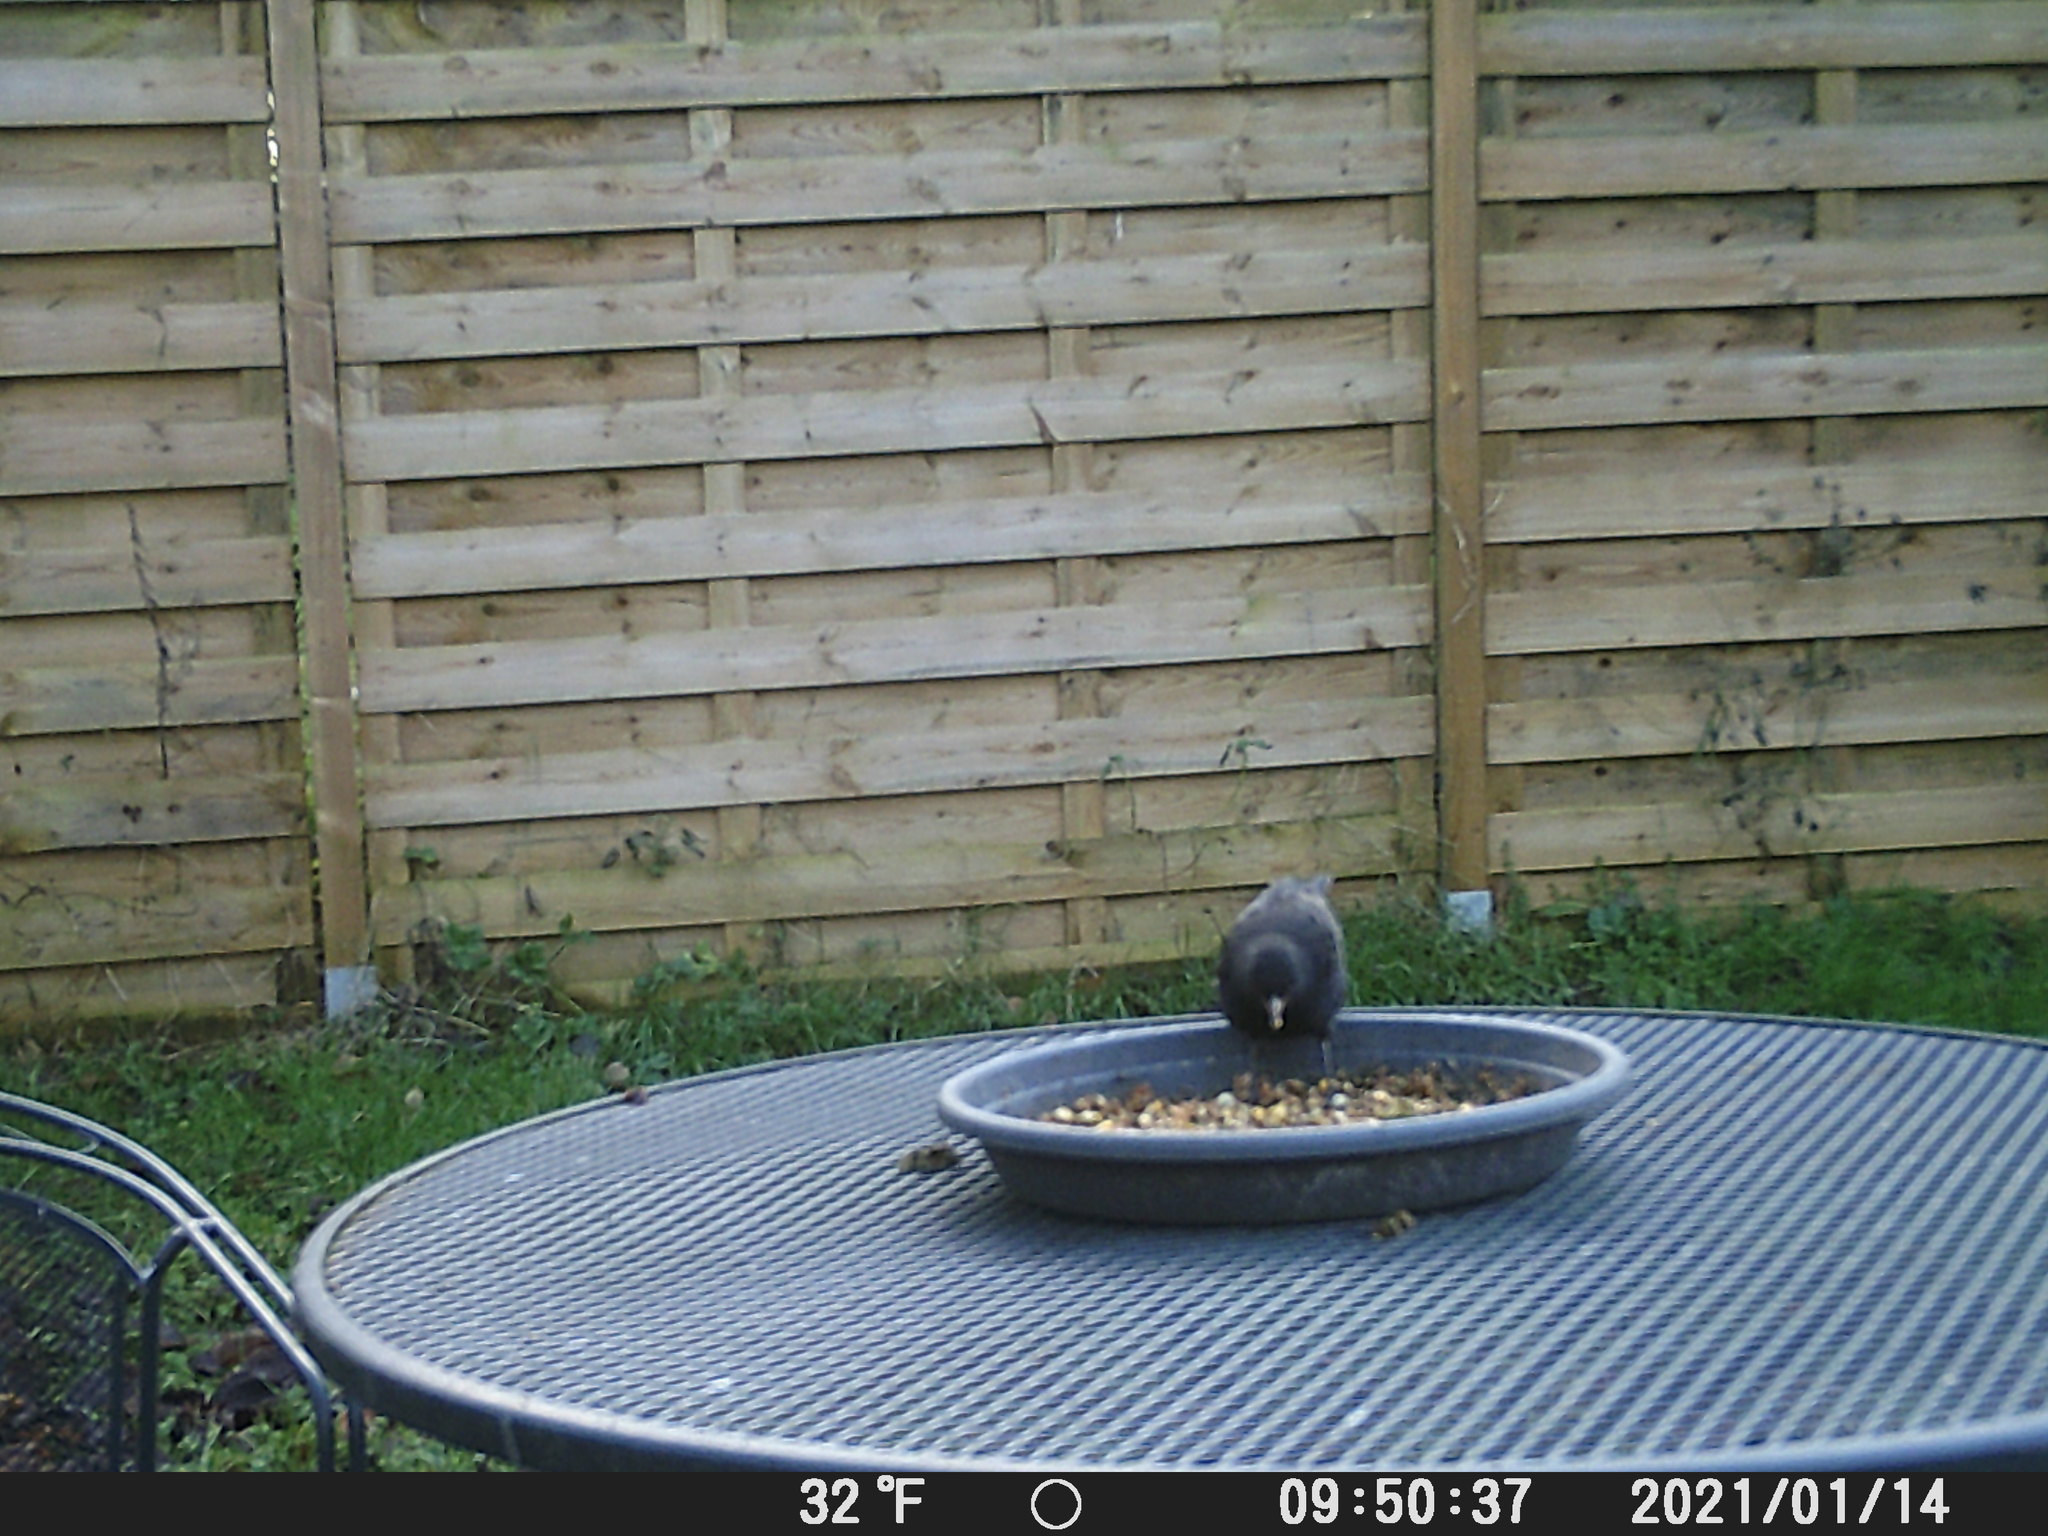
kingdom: Animalia
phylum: Chordata
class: Aves
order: Passeriformes
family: Turdidae
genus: Turdus
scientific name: Turdus merula
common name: Common blackbird
